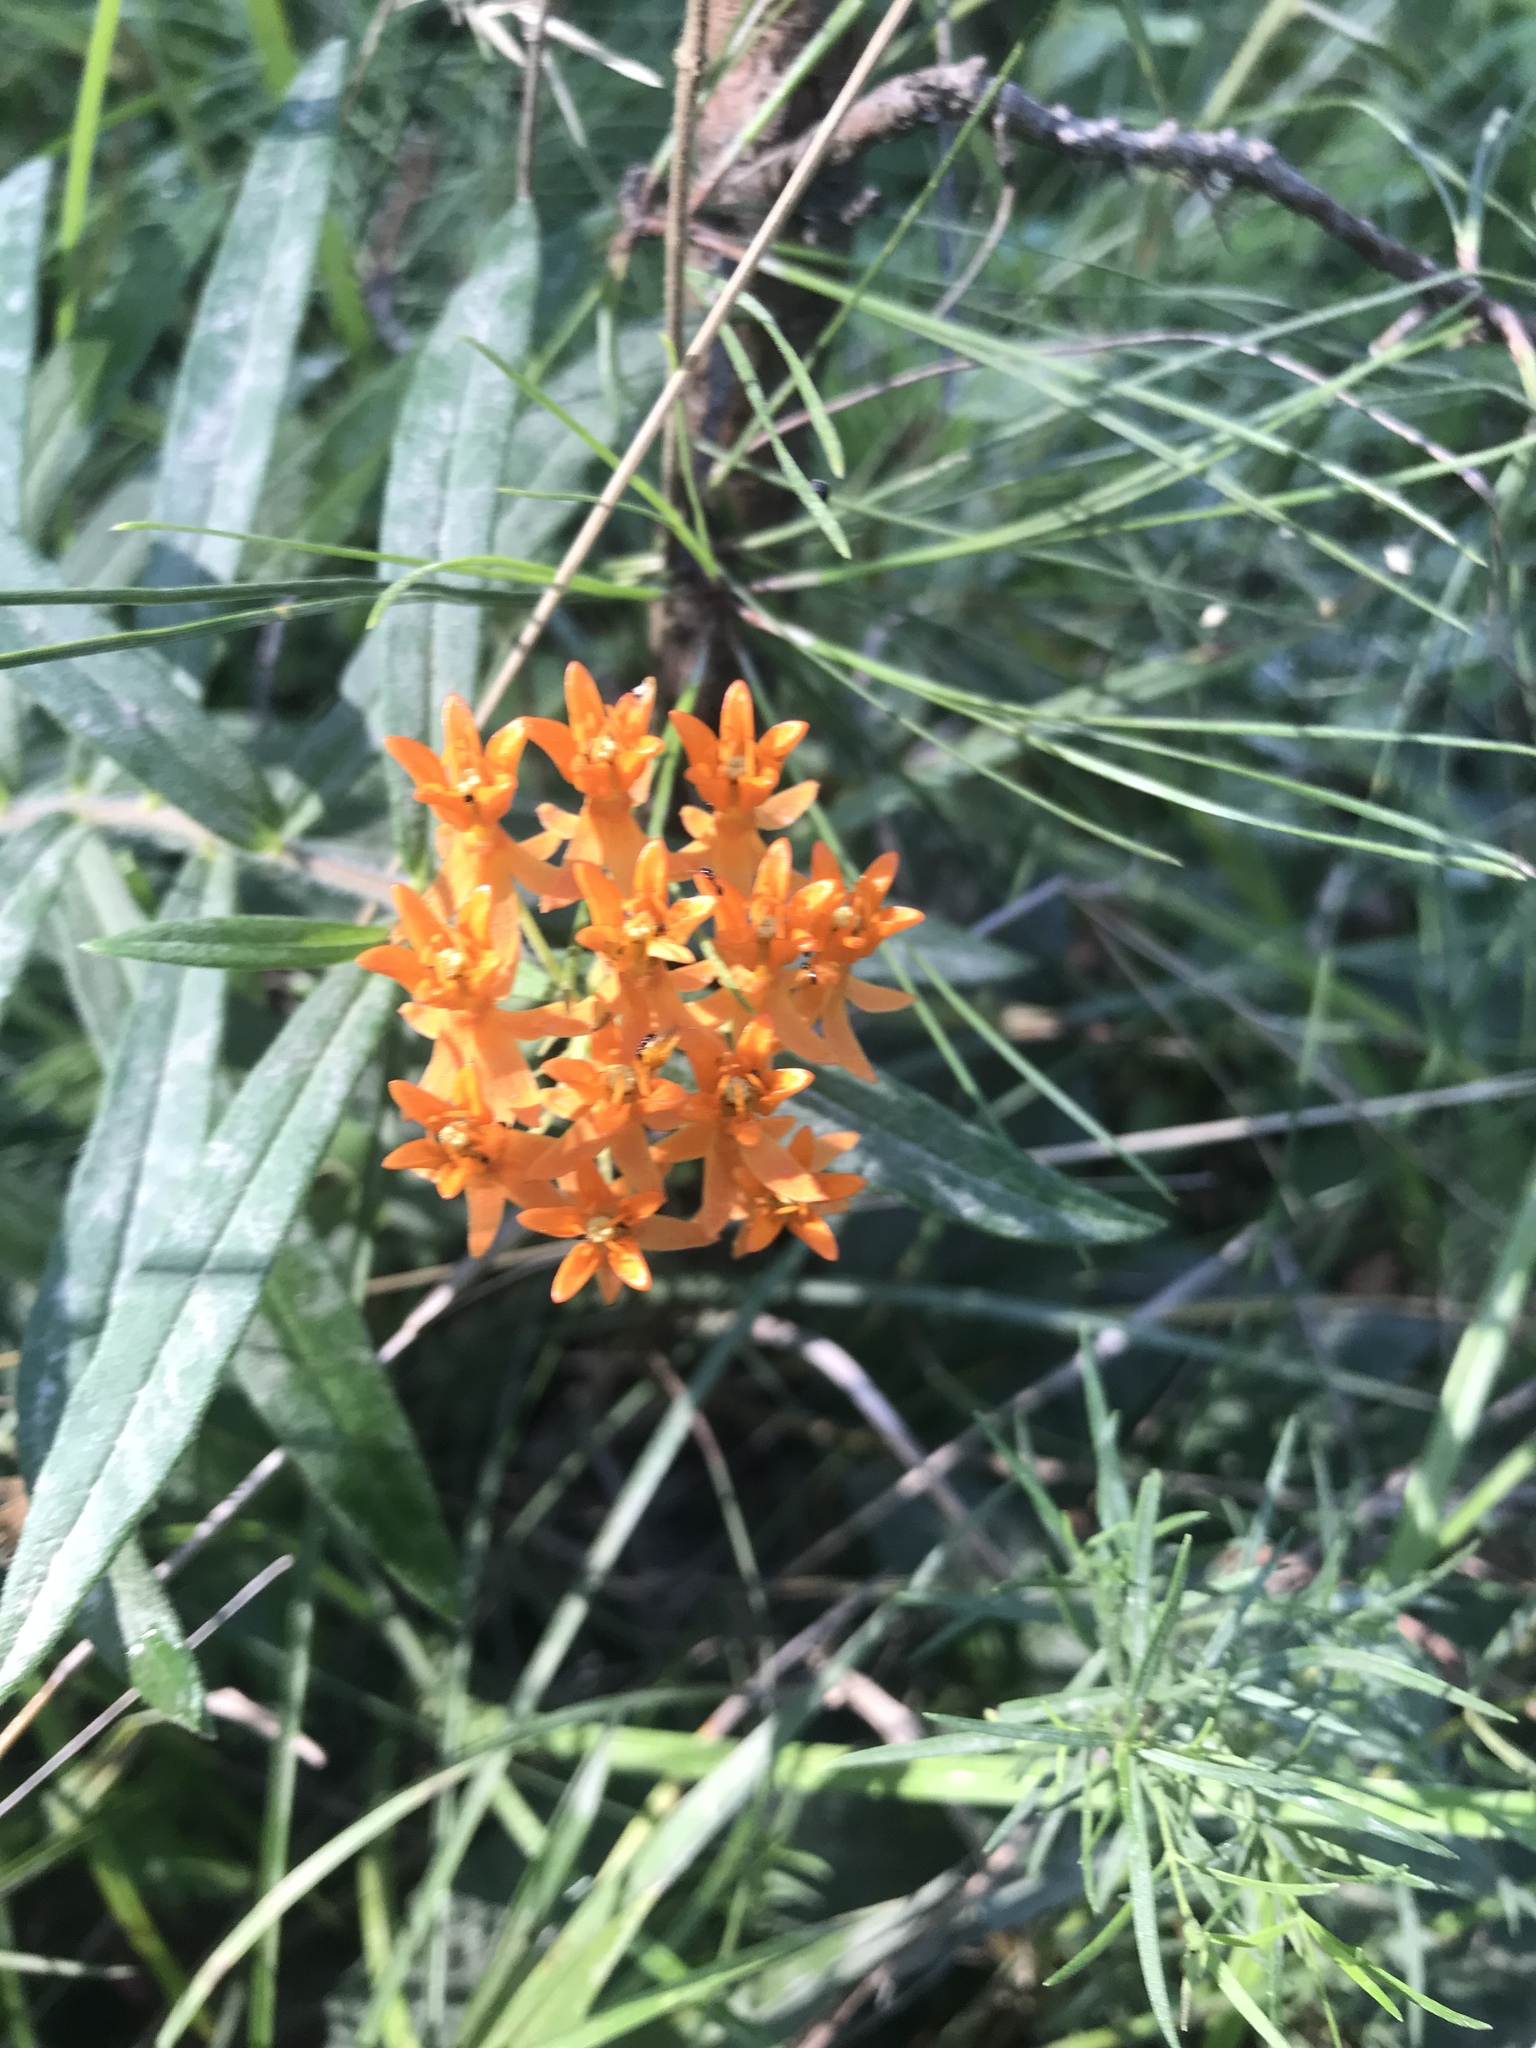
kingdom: Plantae
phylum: Tracheophyta
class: Magnoliopsida
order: Gentianales
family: Apocynaceae
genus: Asclepias
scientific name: Asclepias tuberosa
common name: Butterfly milkweed
